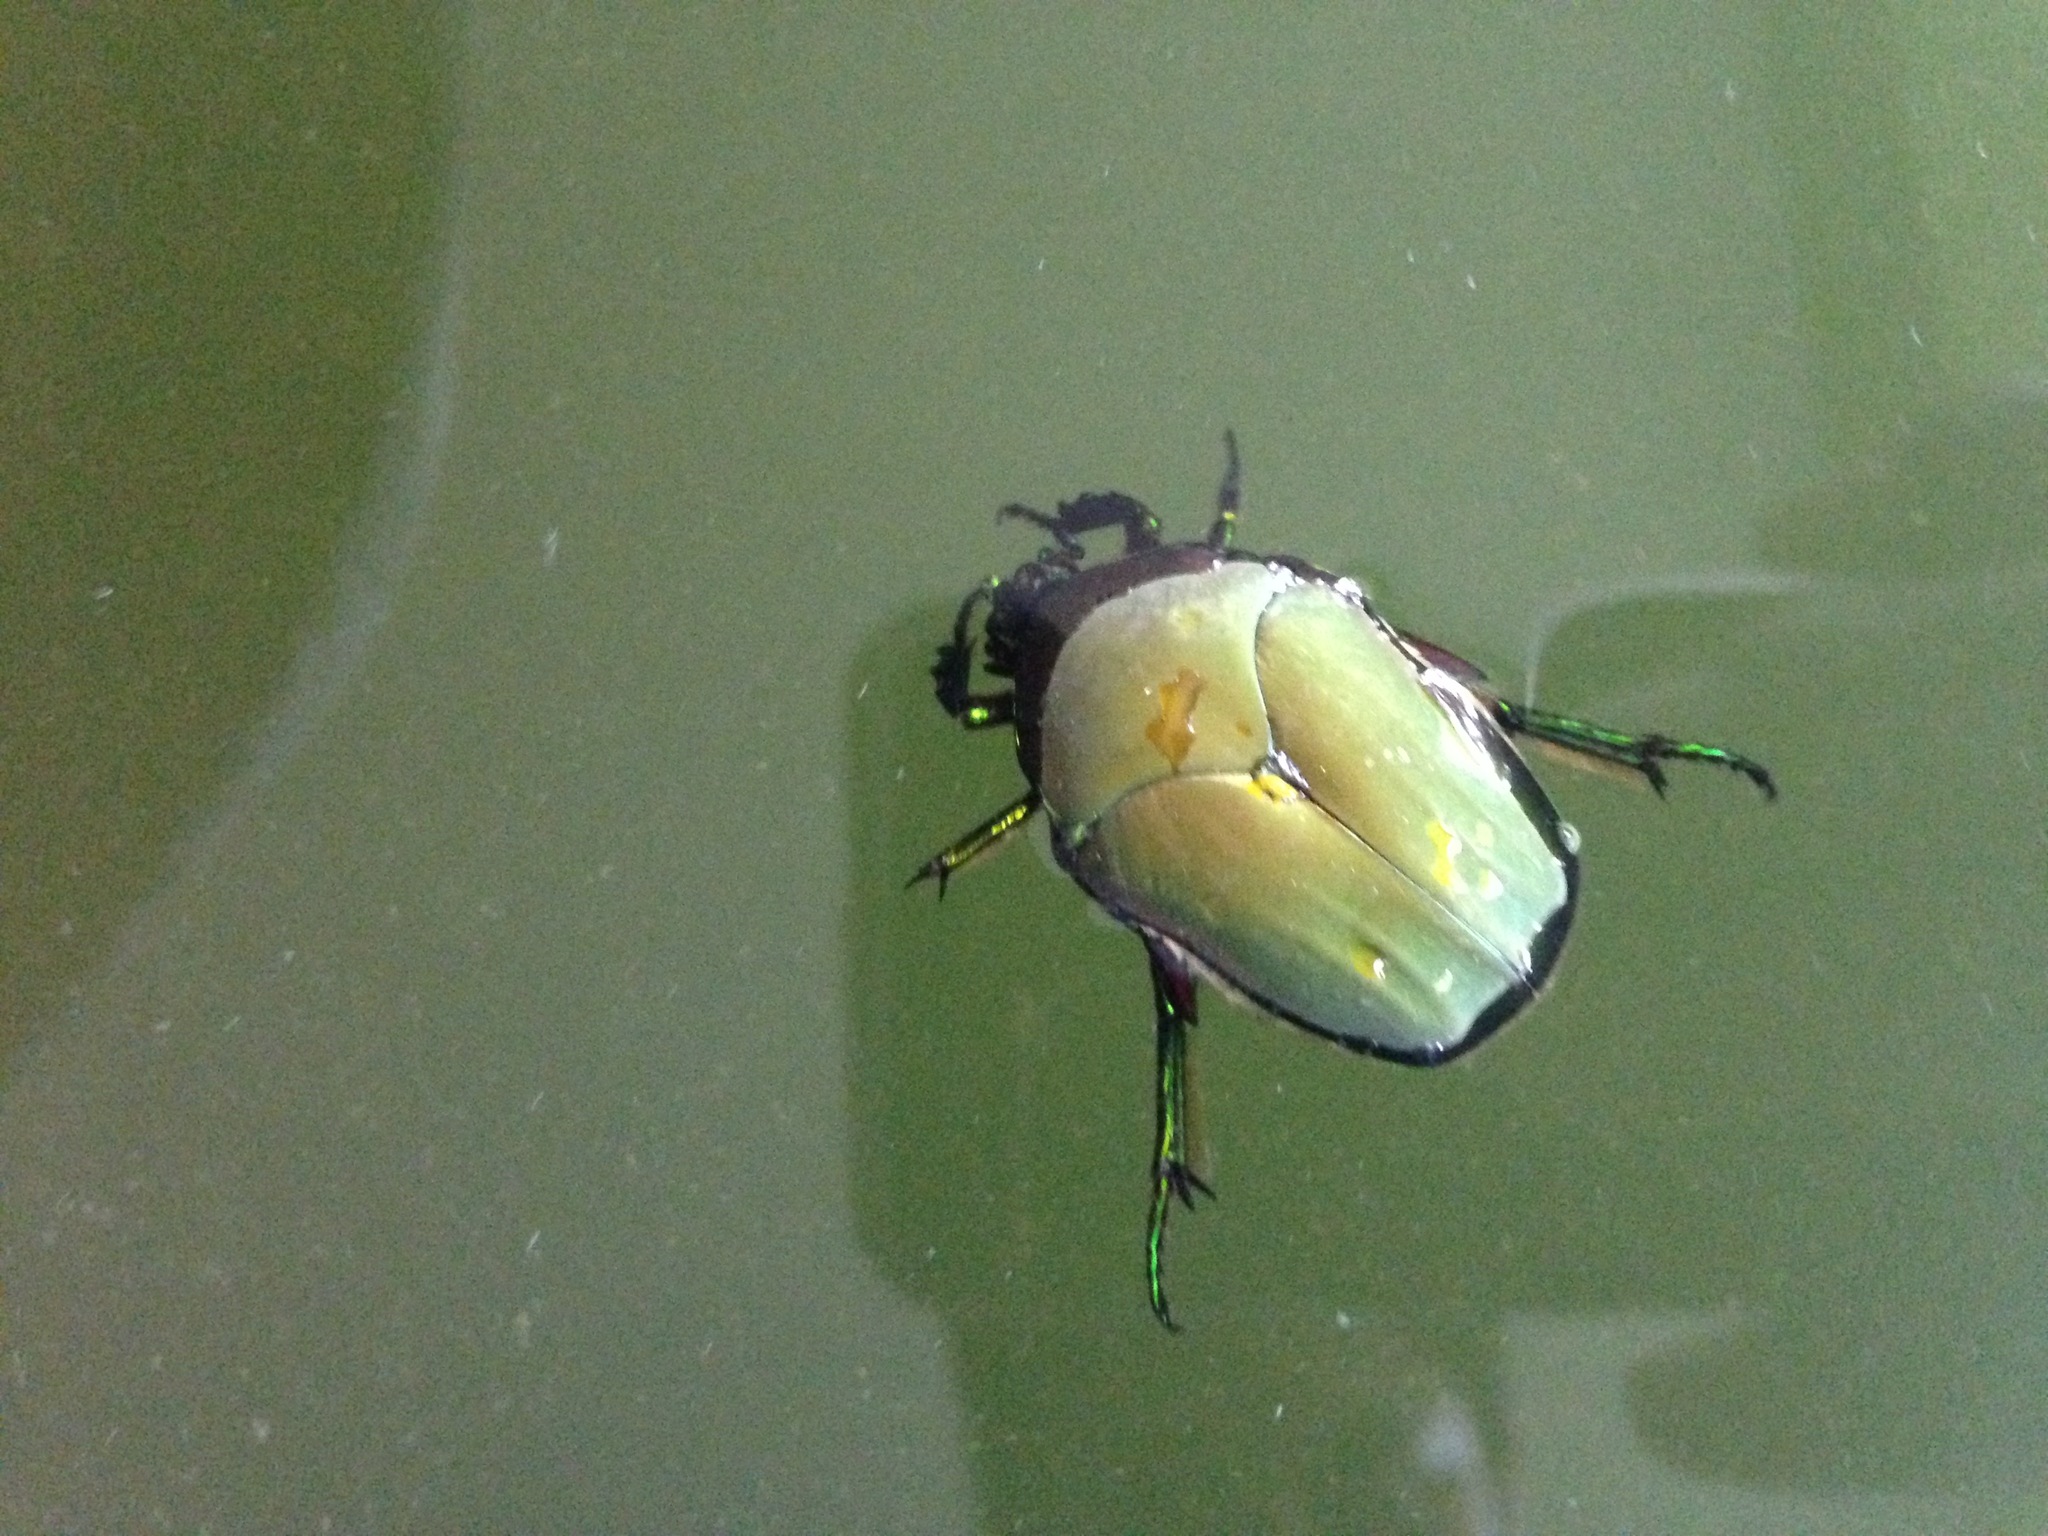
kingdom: Animalia
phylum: Arthropoda
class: Insecta
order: Coleoptera
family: Scarabaeidae
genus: Cotinis
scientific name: Cotinis mutabilis
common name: Figeater beetle
